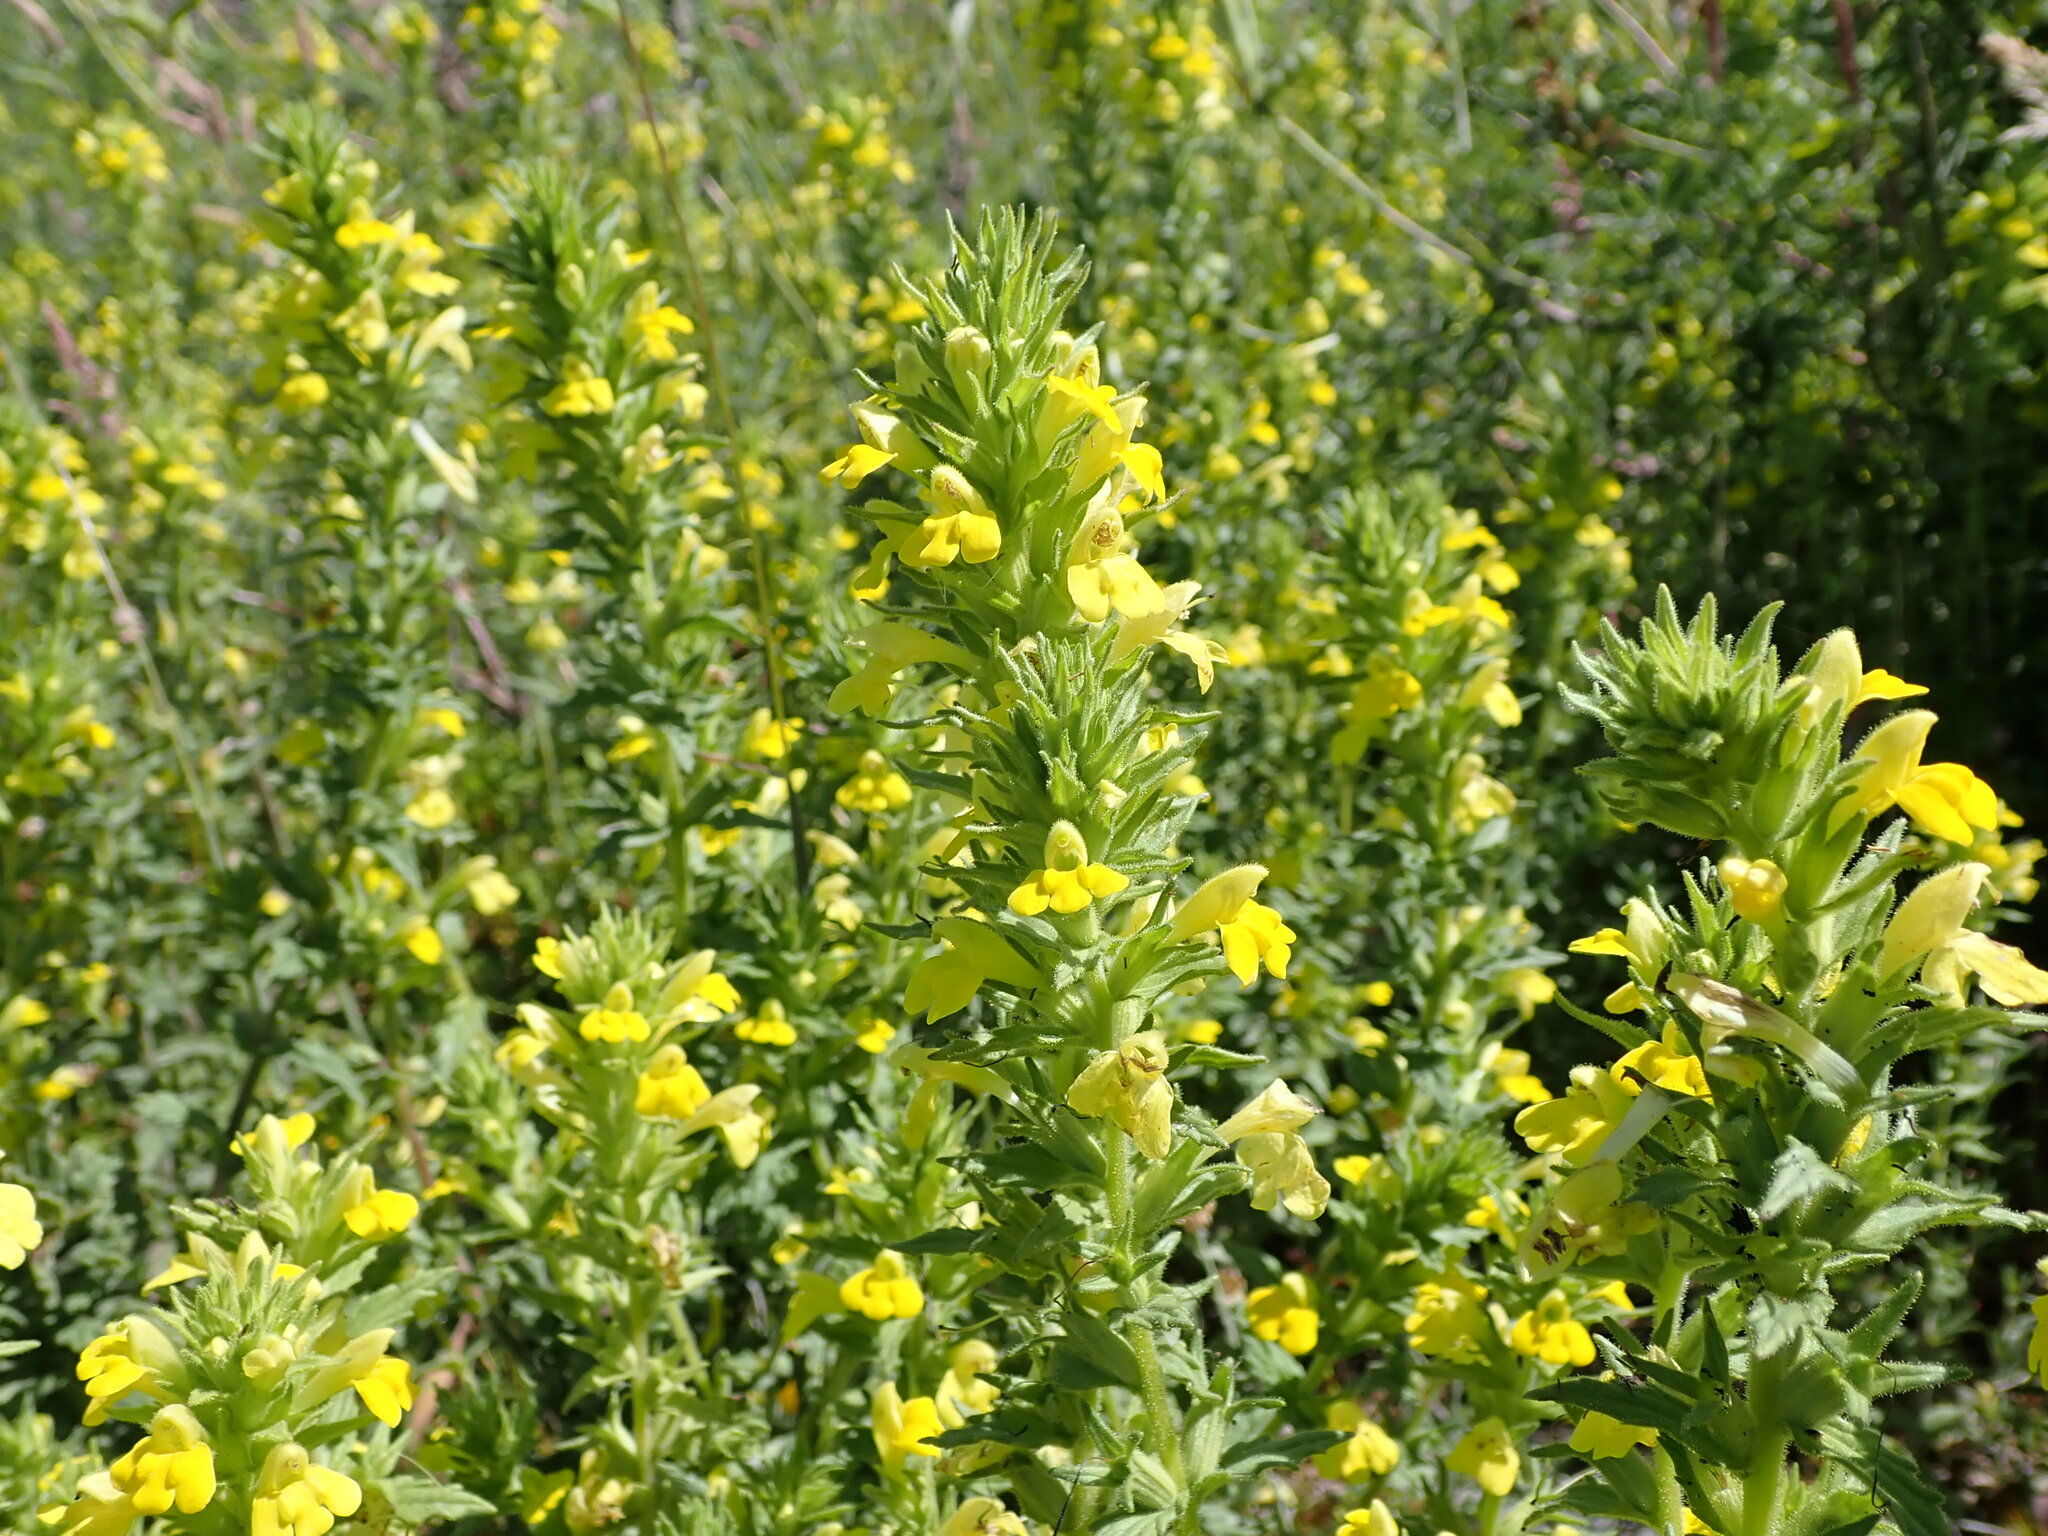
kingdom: Plantae
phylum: Tracheophyta
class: Magnoliopsida
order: Lamiales
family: Orobanchaceae
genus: Bellardia
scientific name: Bellardia viscosa
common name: Sticky parentucellia
